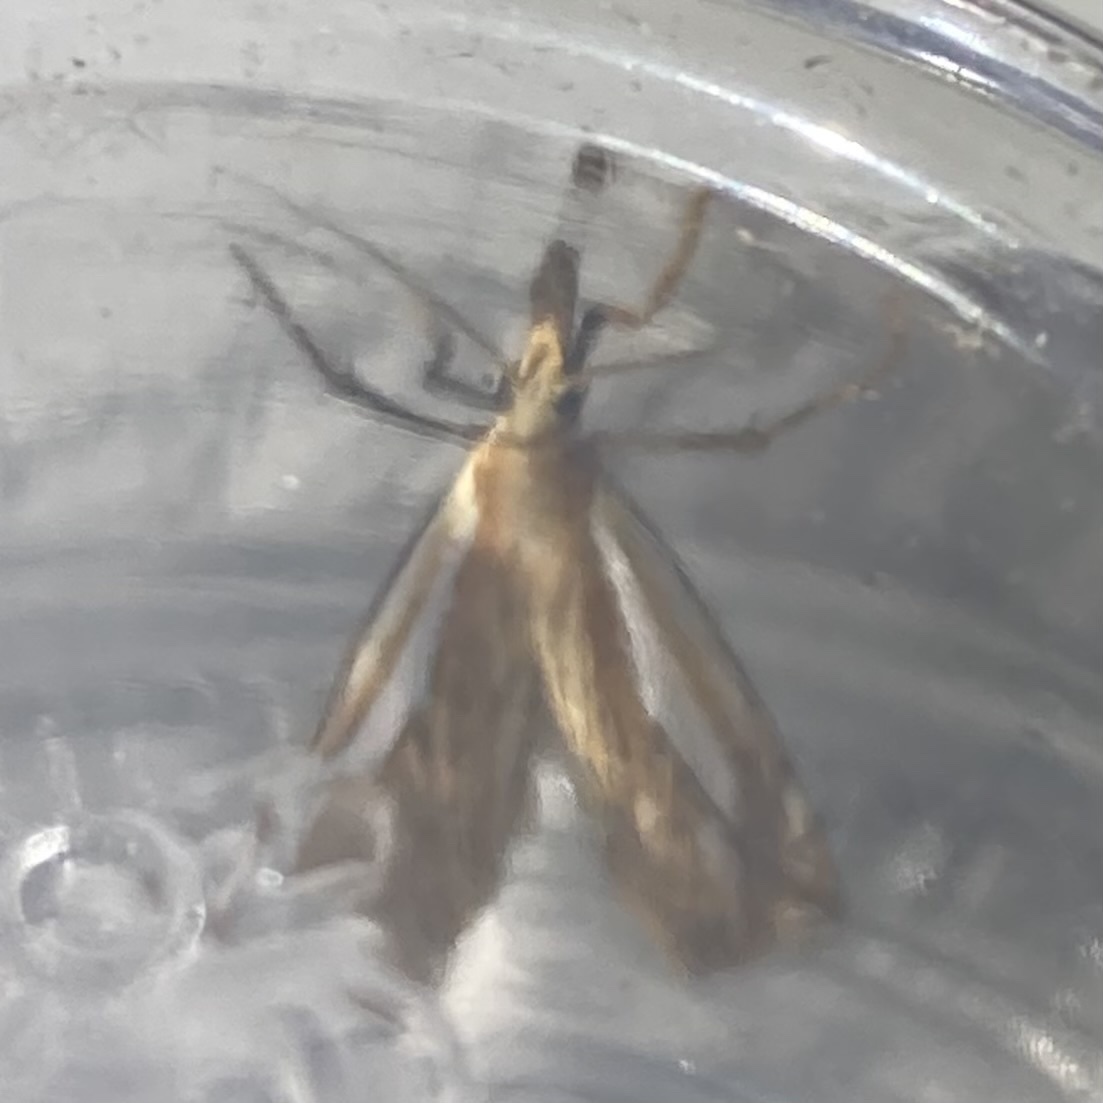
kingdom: Animalia
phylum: Arthropoda
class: Insecta
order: Lepidoptera
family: Crambidae
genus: Crambus
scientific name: Crambus saltuellus
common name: Pasture grass-veneer
